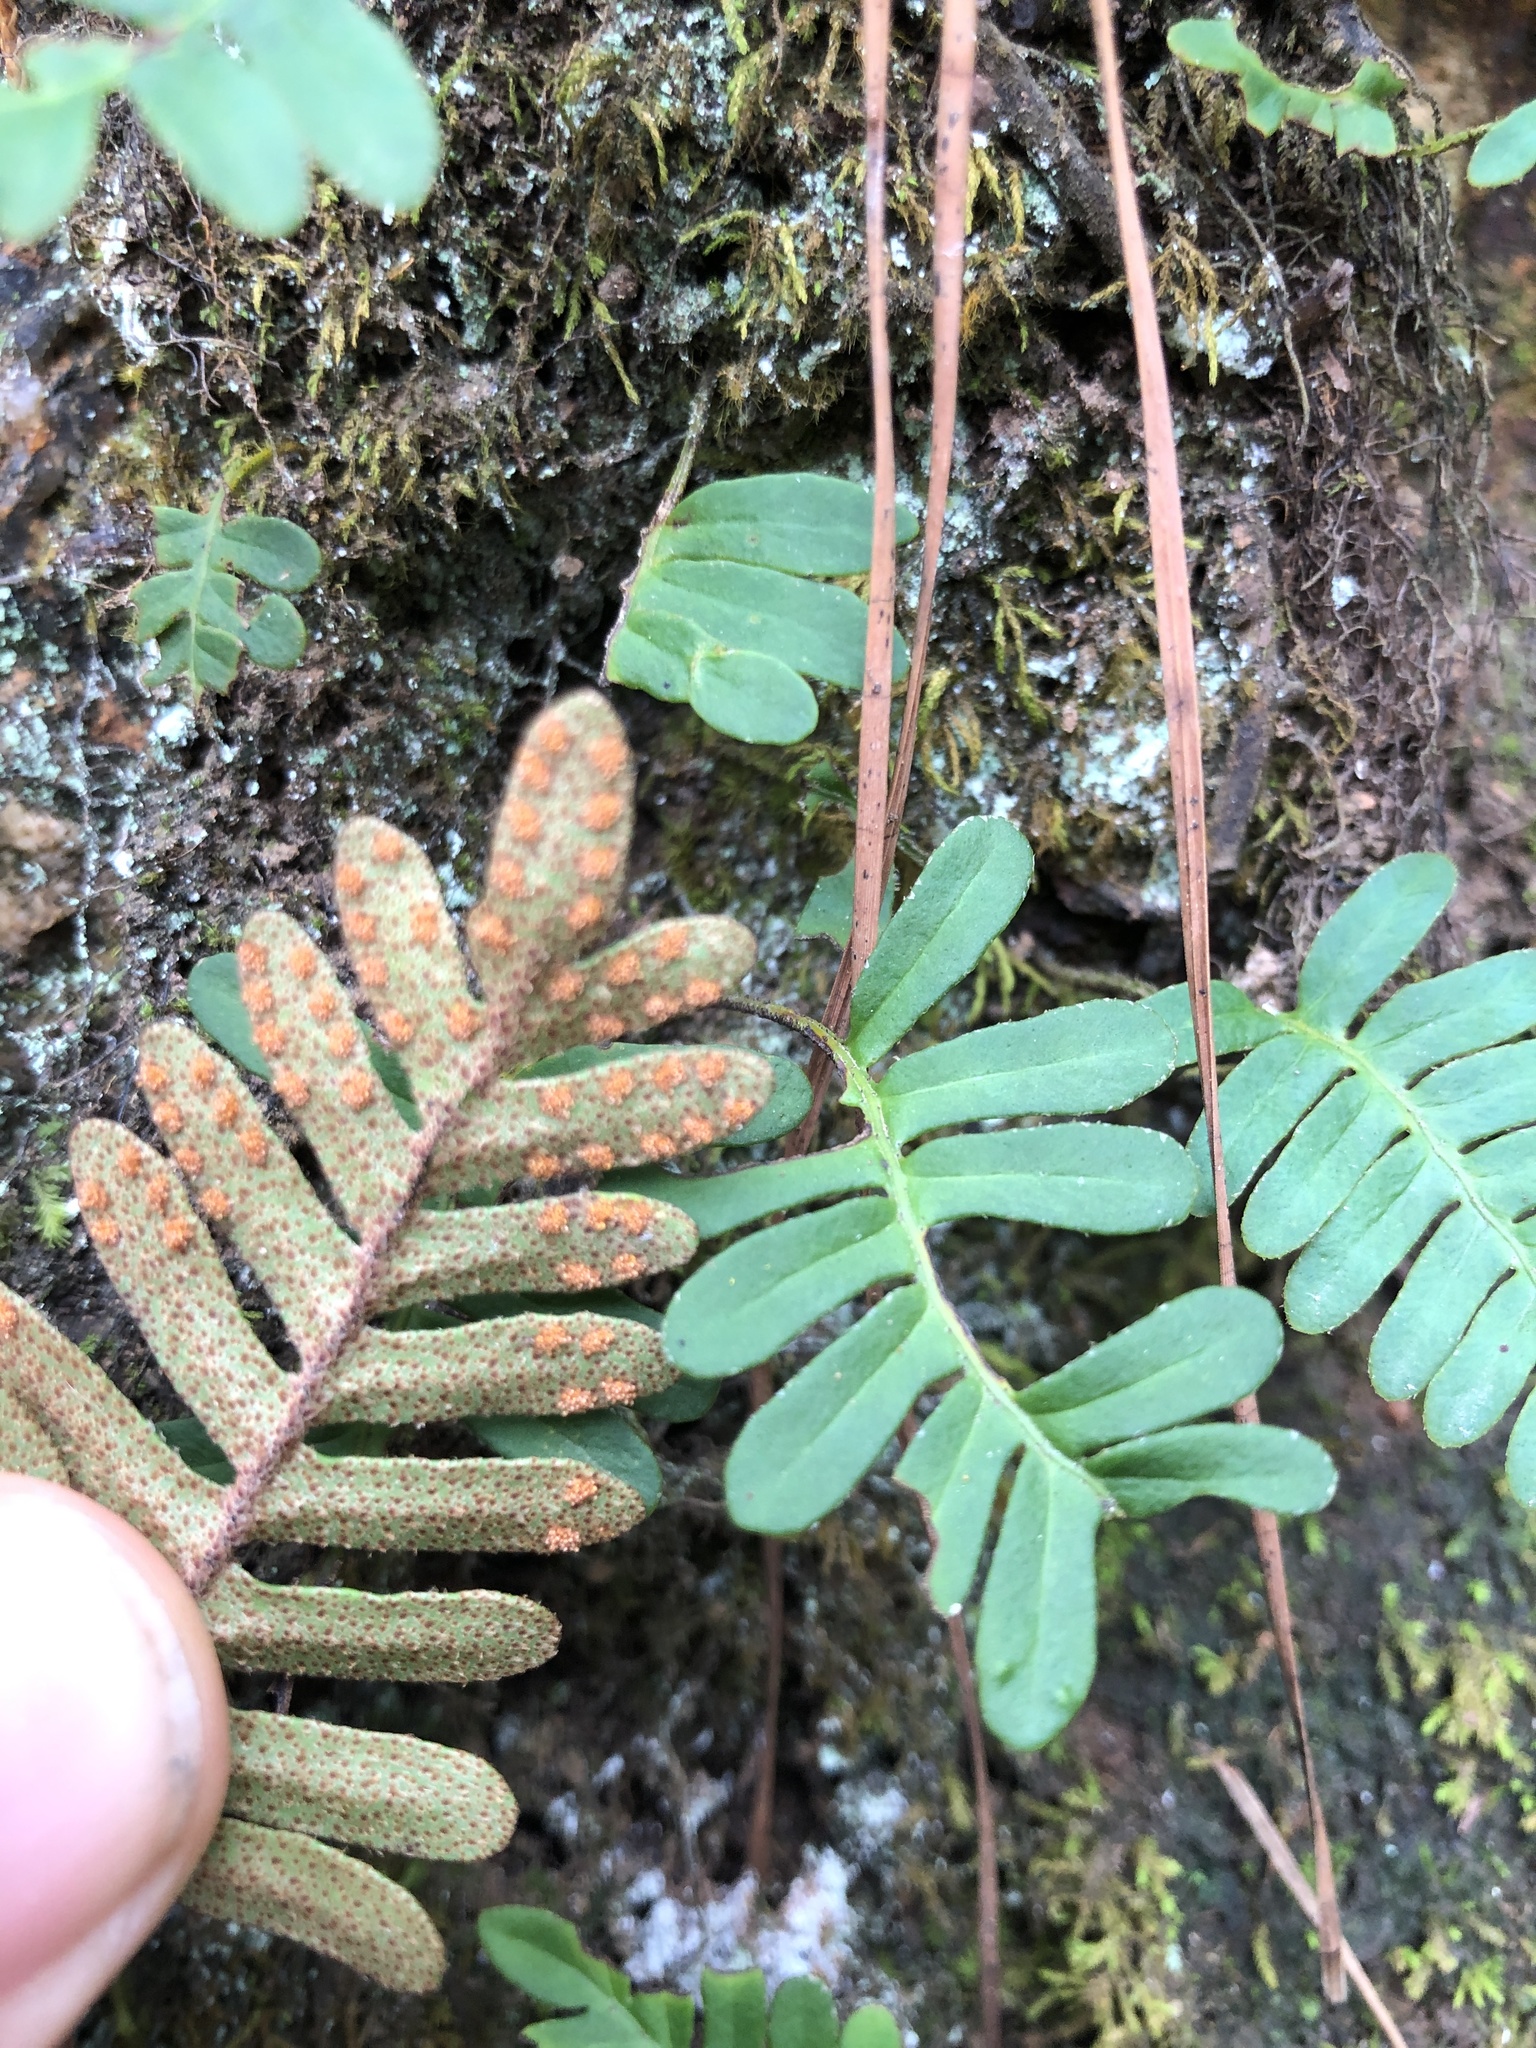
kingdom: Plantae
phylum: Tracheophyta
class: Polypodiopsida
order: Polypodiales
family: Polypodiaceae
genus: Pleopeltis
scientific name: Pleopeltis michauxiana
